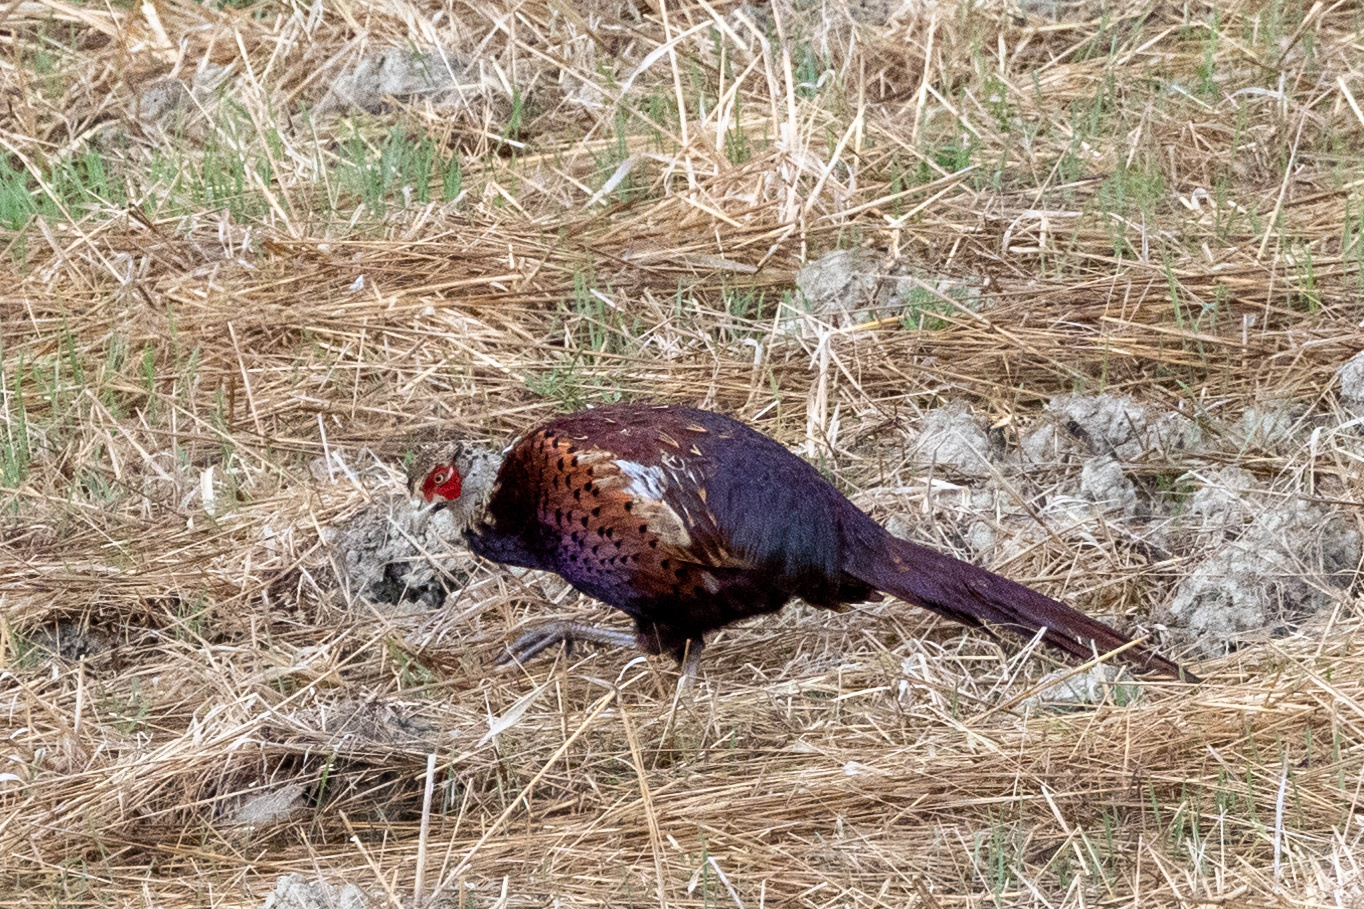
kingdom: Animalia
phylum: Chordata
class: Aves
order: Galliformes
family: Phasianidae
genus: Phasianus
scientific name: Phasianus colchicus
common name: Common pheasant
